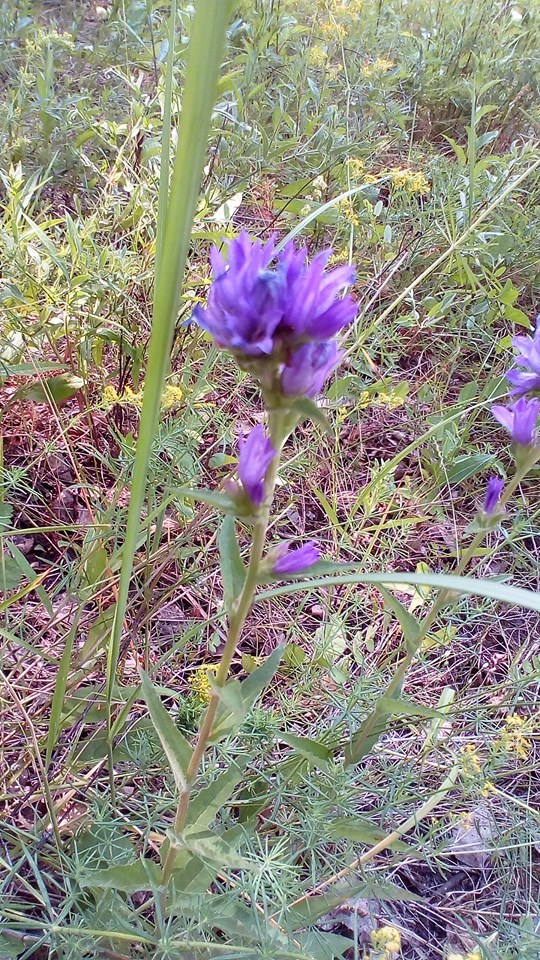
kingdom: Plantae
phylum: Tracheophyta
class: Magnoliopsida
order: Asterales
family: Campanulaceae
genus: Campanula
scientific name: Campanula glomerata
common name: Clustered bellflower
